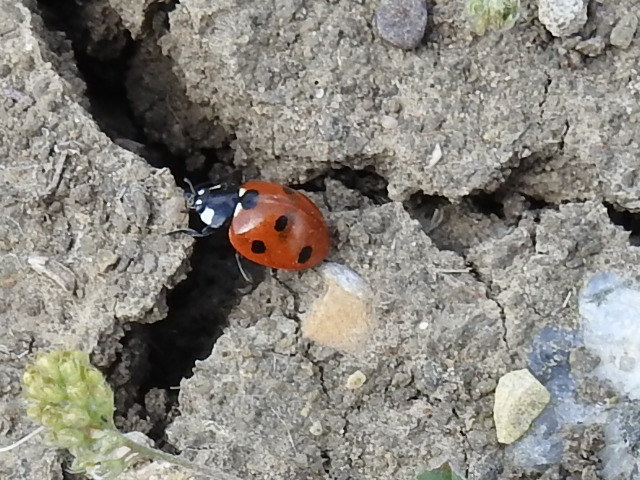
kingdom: Animalia
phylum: Arthropoda
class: Insecta
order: Coleoptera
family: Coccinellidae
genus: Coccinella
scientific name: Coccinella septempunctata
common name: Sevenspotted lady beetle
